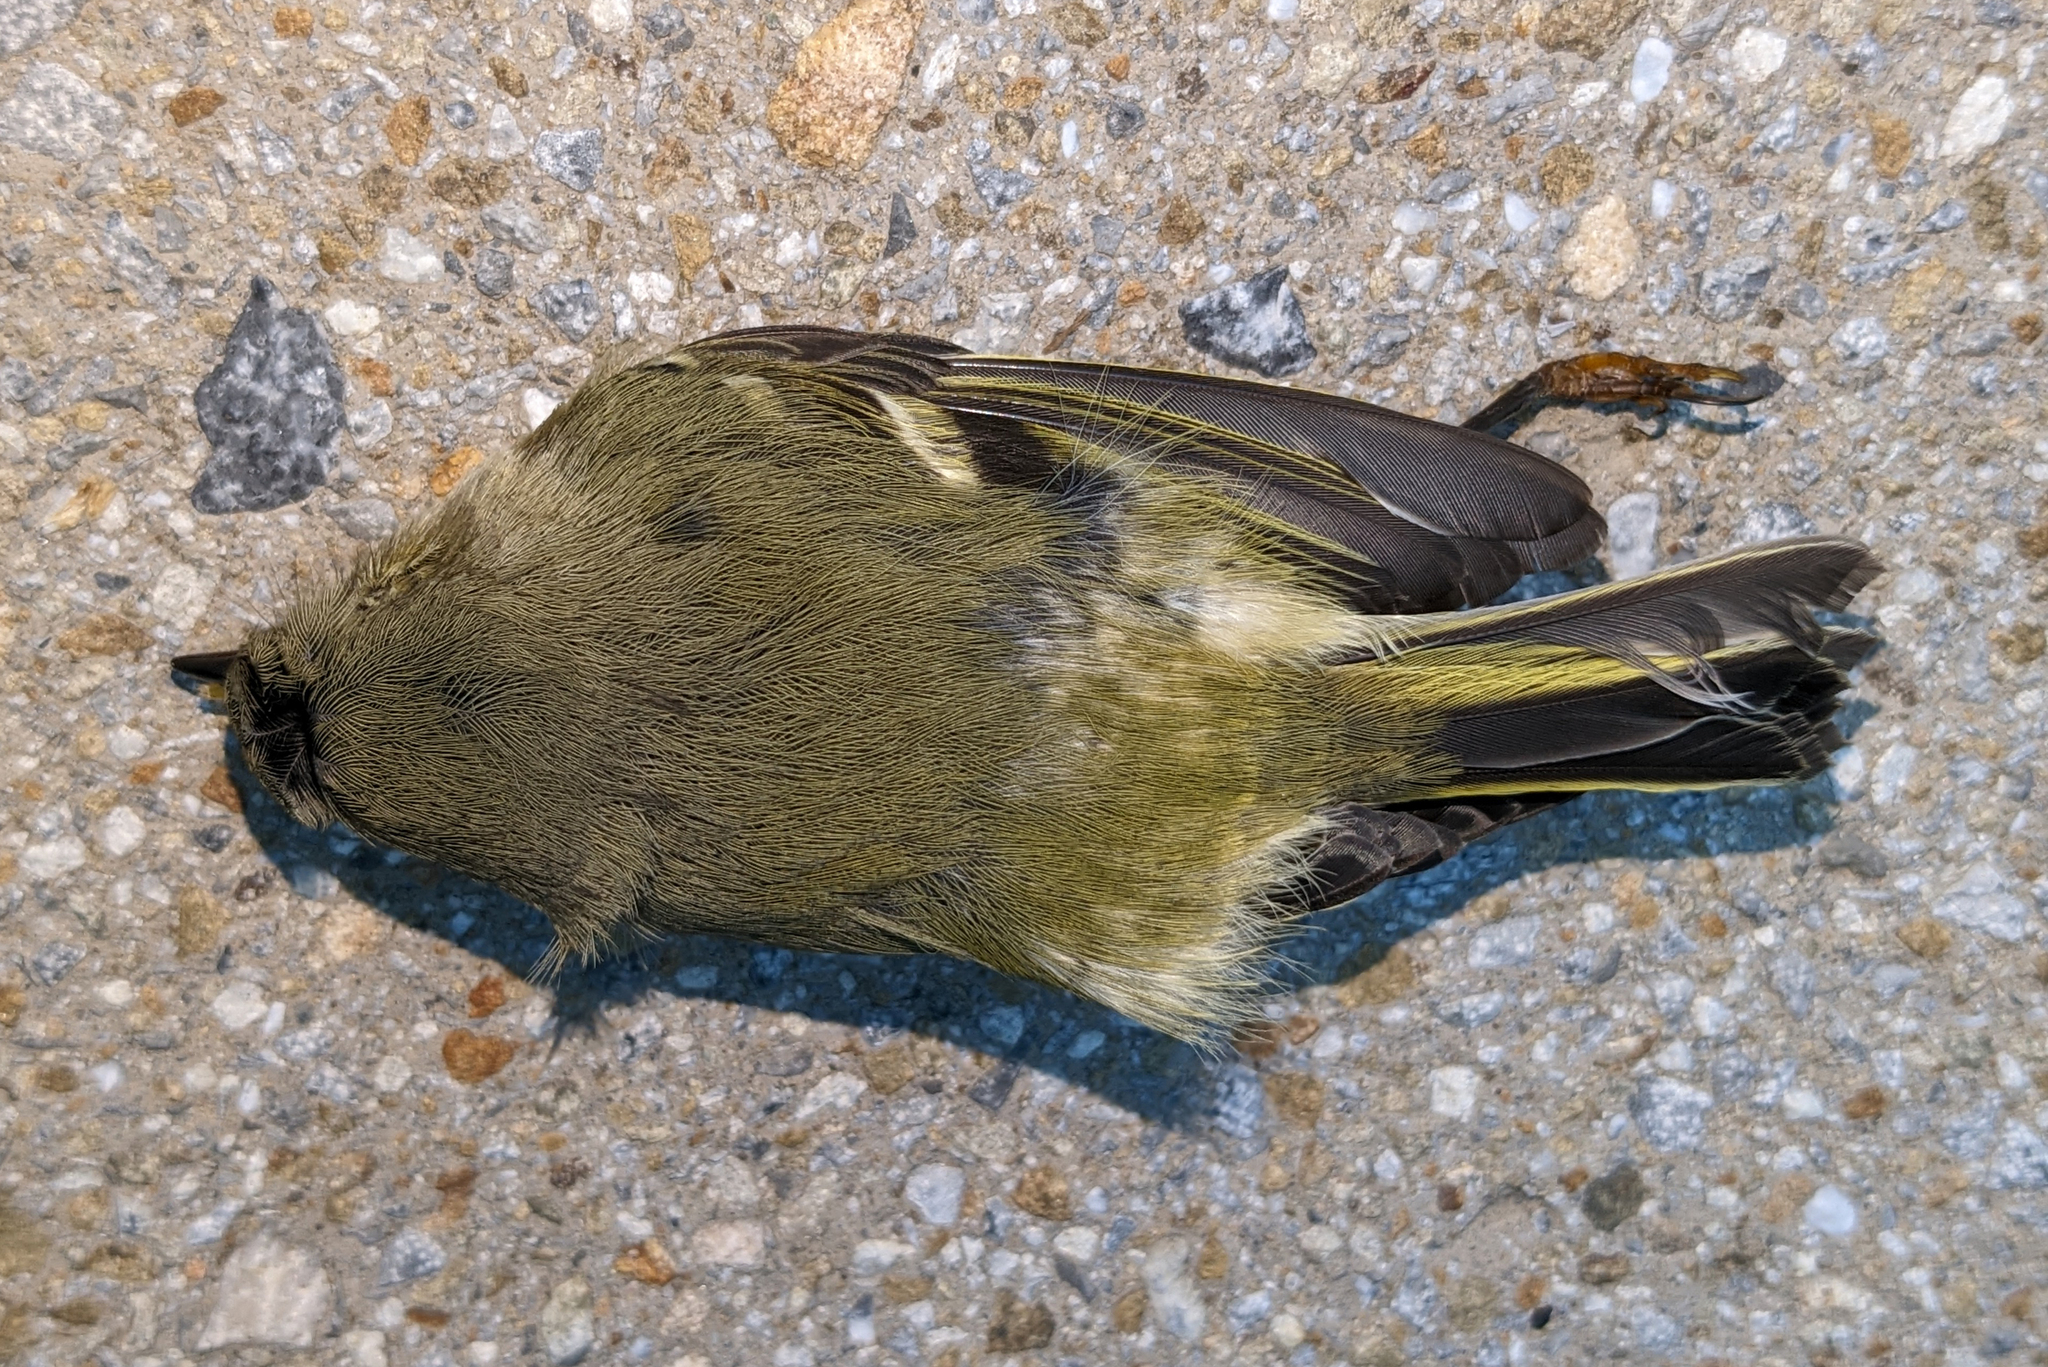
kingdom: Animalia
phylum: Chordata
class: Aves
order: Passeriformes
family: Regulidae
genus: Regulus
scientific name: Regulus calendula
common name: Ruby-crowned kinglet
